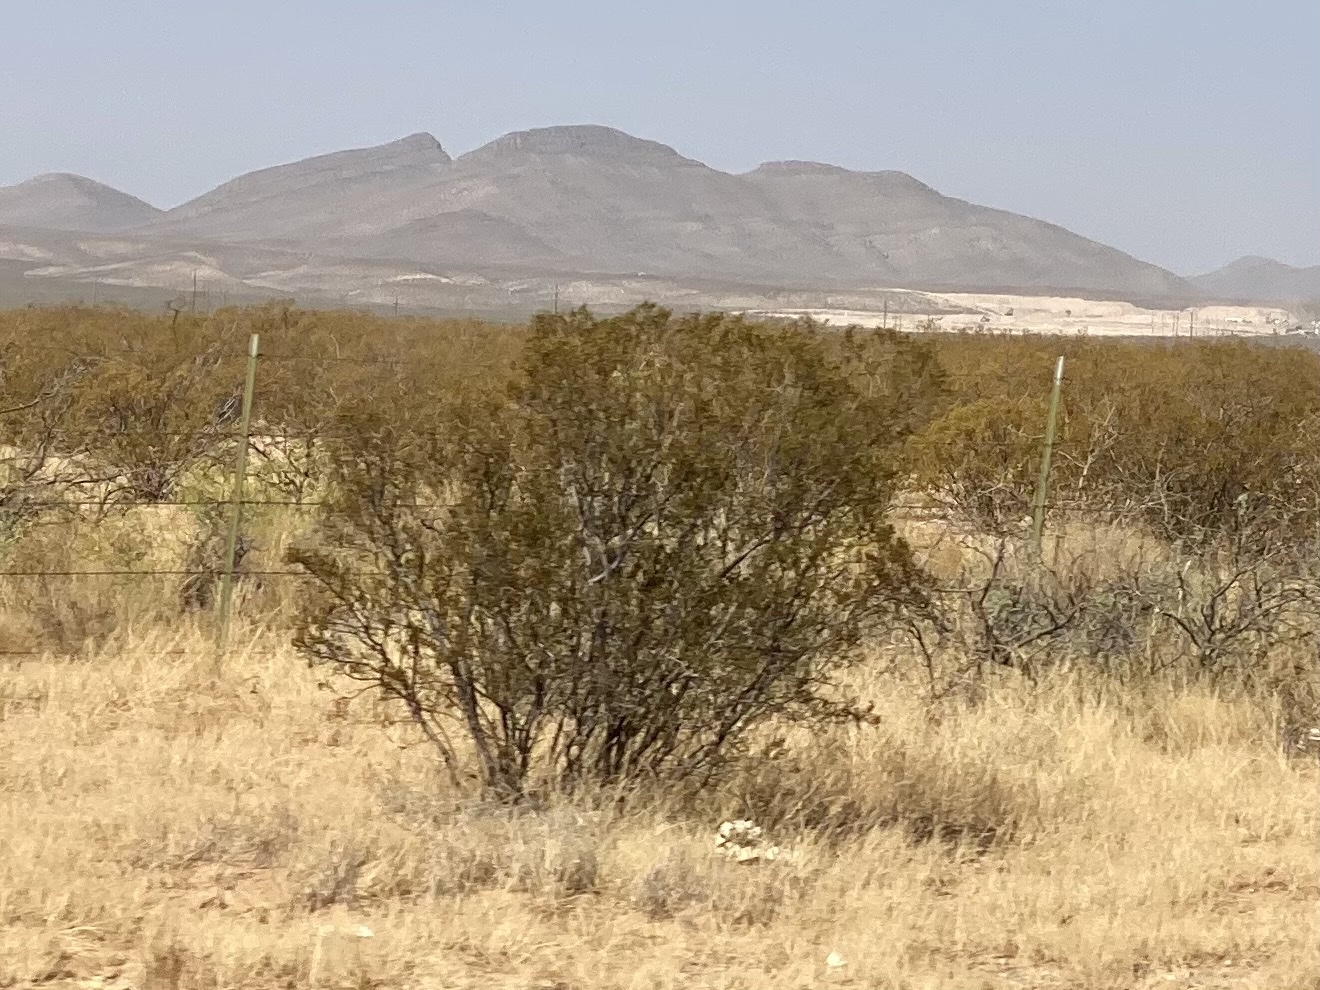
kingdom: Plantae
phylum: Tracheophyta
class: Magnoliopsida
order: Zygophyllales
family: Zygophyllaceae
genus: Larrea
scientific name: Larrea tridentata
